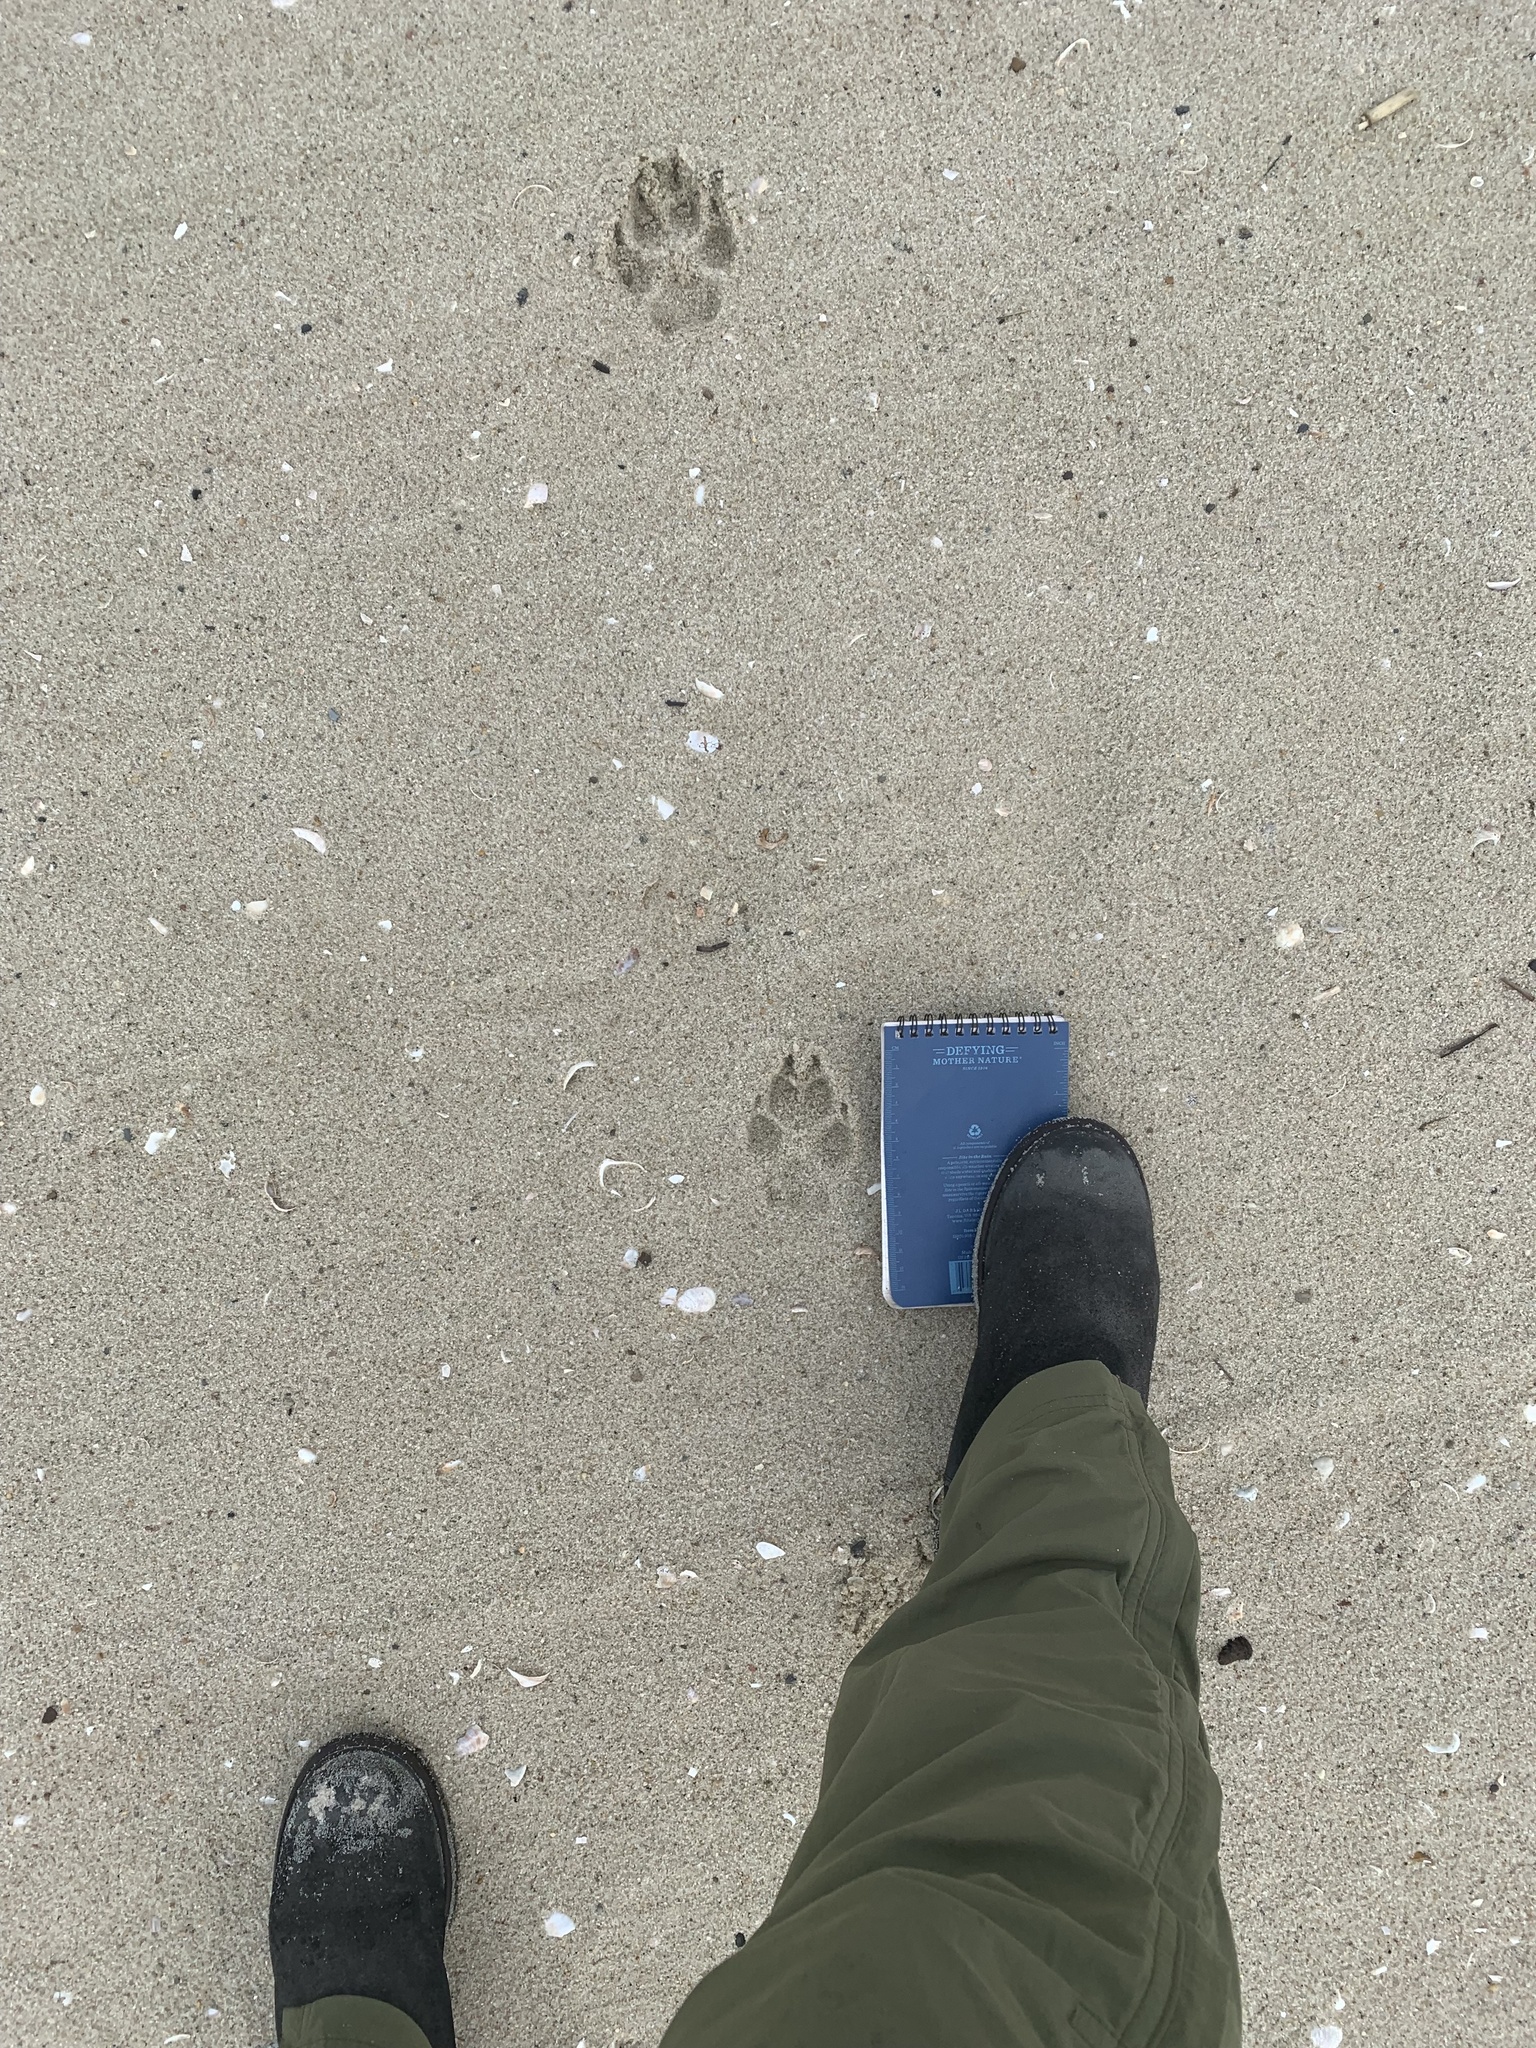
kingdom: Animalia
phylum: Chordata
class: Mammalia
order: Carnivora
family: Canidae
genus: Canis
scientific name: Canis latrans
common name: Coyote
